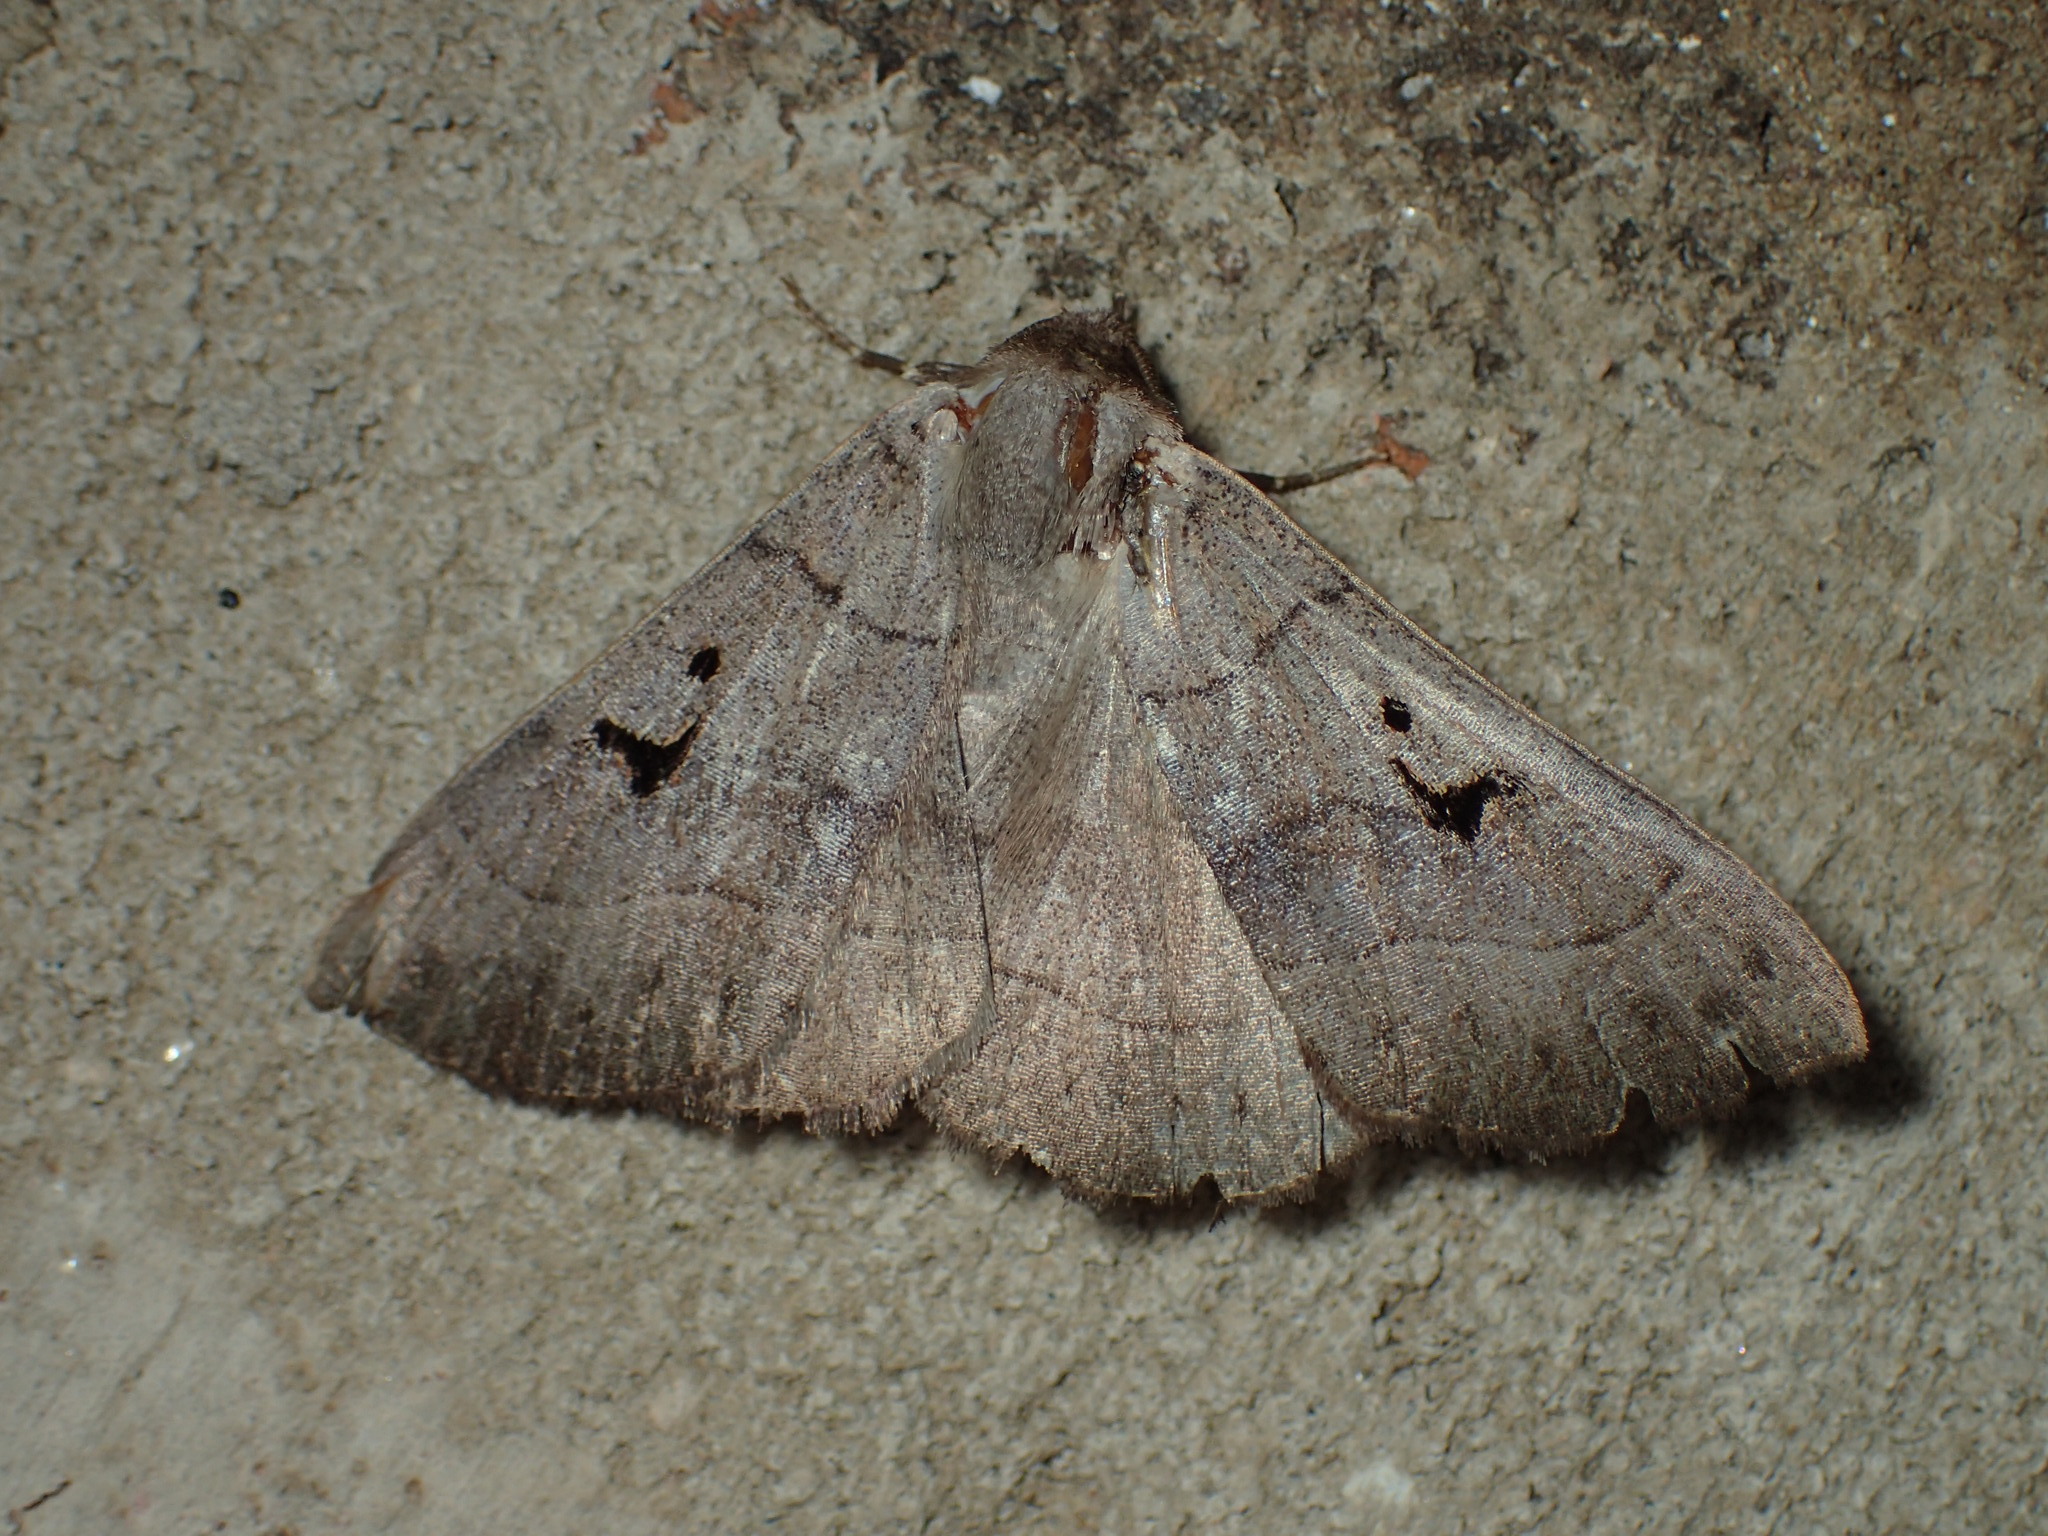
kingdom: Animalia
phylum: Arthropoda
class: Insecta
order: Lepidoptera
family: Erebidae
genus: Panopoda
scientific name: Panopoda carneicosta
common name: Brown panopoda moth
